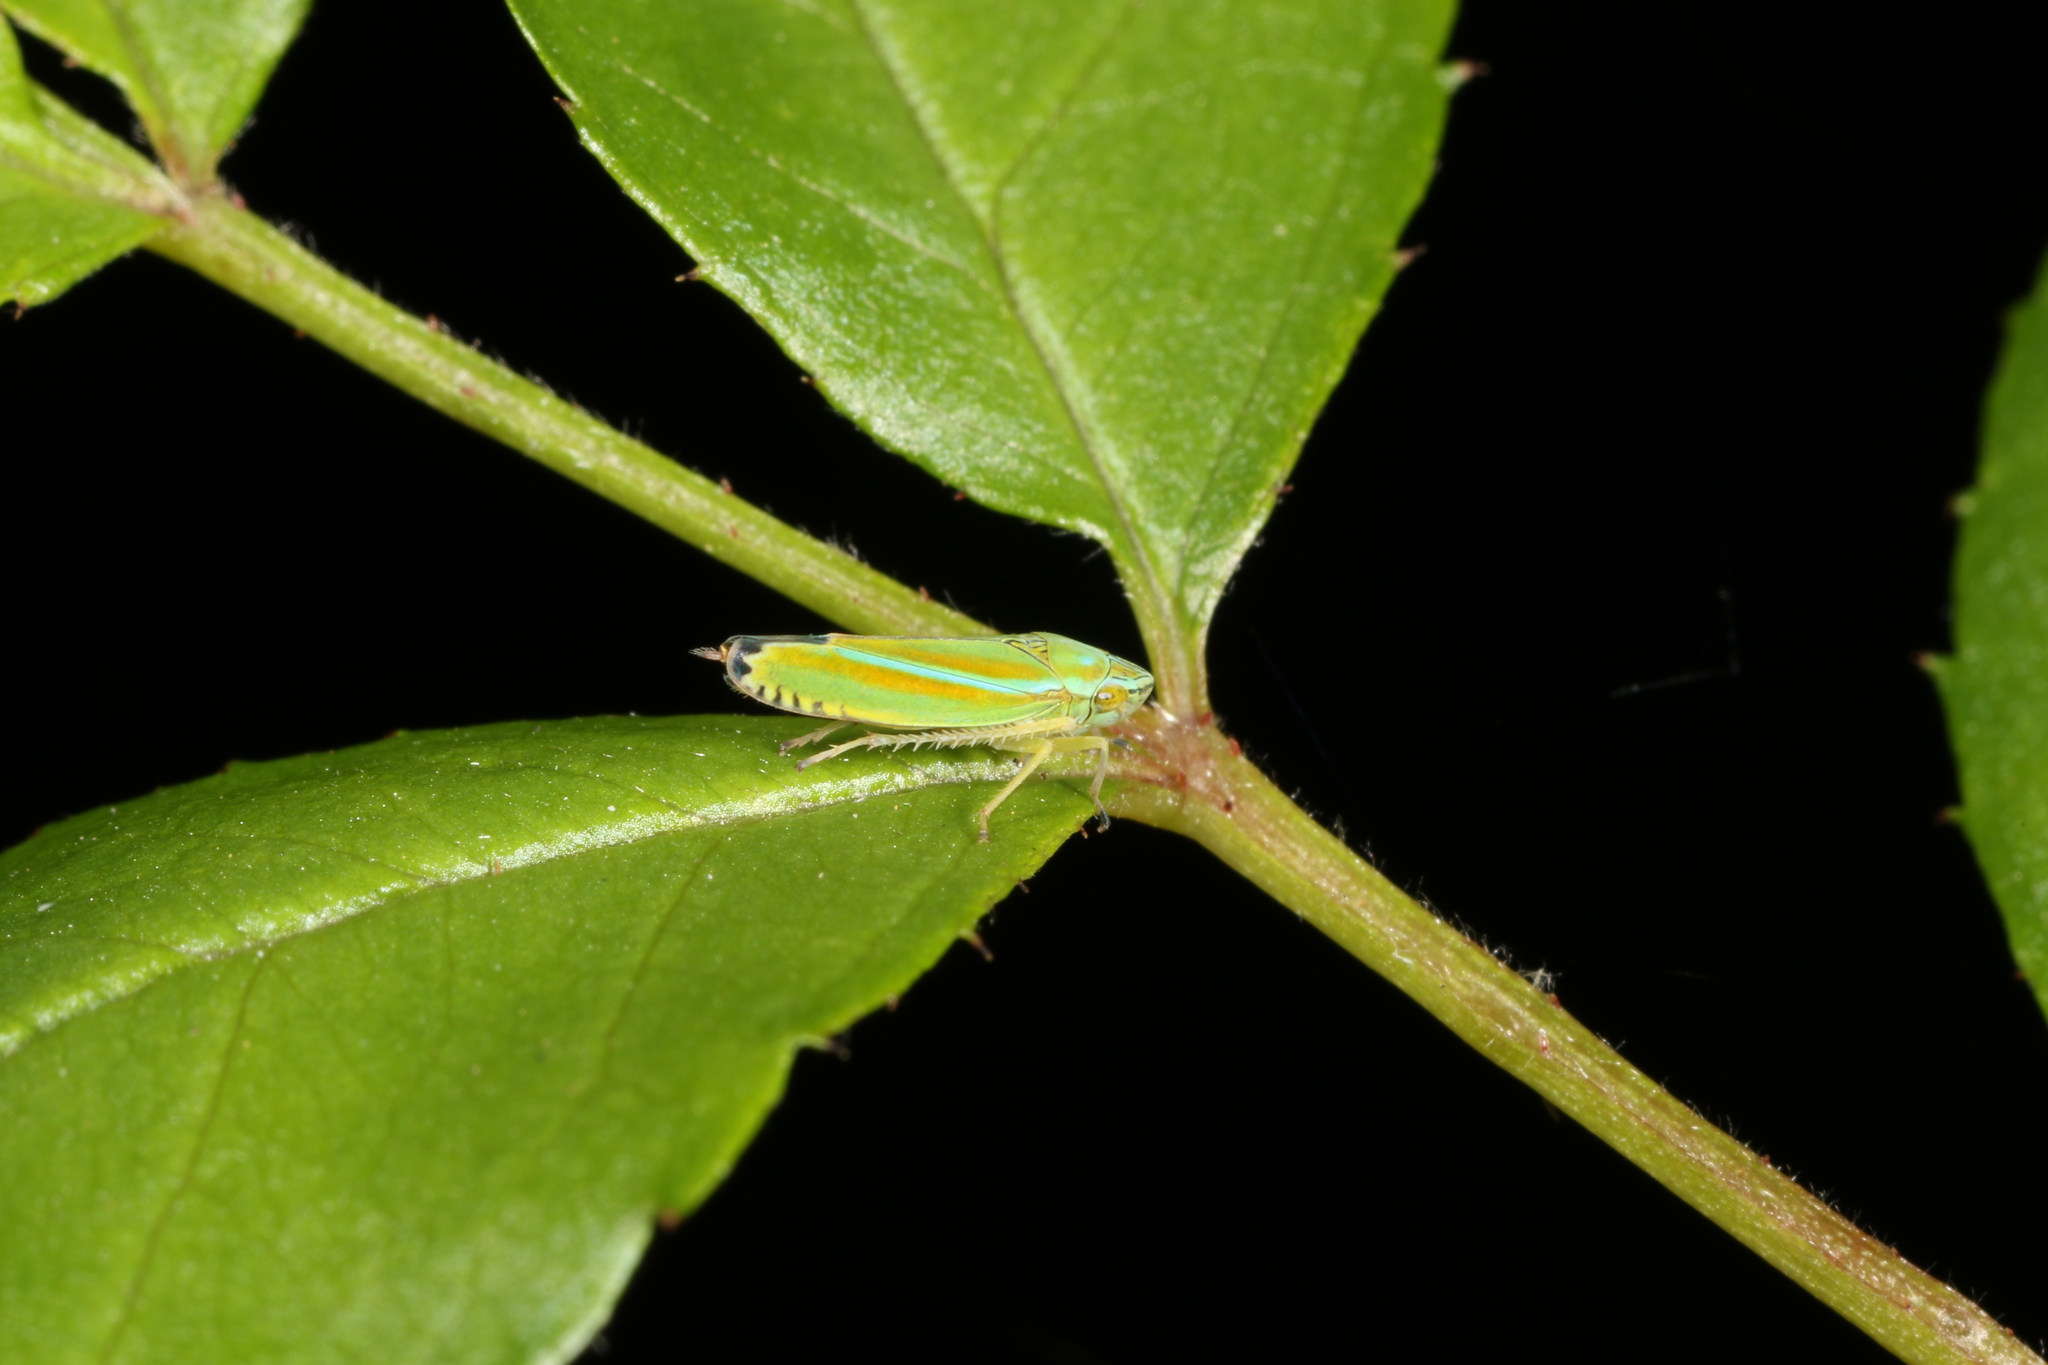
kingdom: Plantae
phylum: Tracheophyta
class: Magnoliopsida
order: Myrtales
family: Onagraceae
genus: Circaea
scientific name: Circaea canadensis
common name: Broad-leaved enchanter's nightshade
